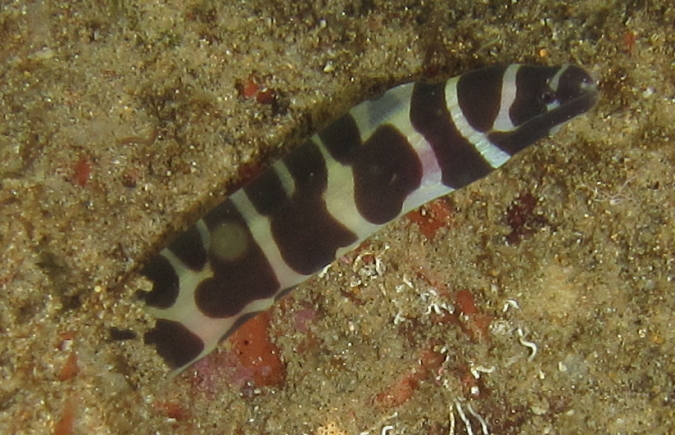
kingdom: Animalia
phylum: Chordata
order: Anguilliformes
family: Muraenidae
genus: Gymnothorax
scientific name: Gymnothorax favagineus
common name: Honeycomb moray
